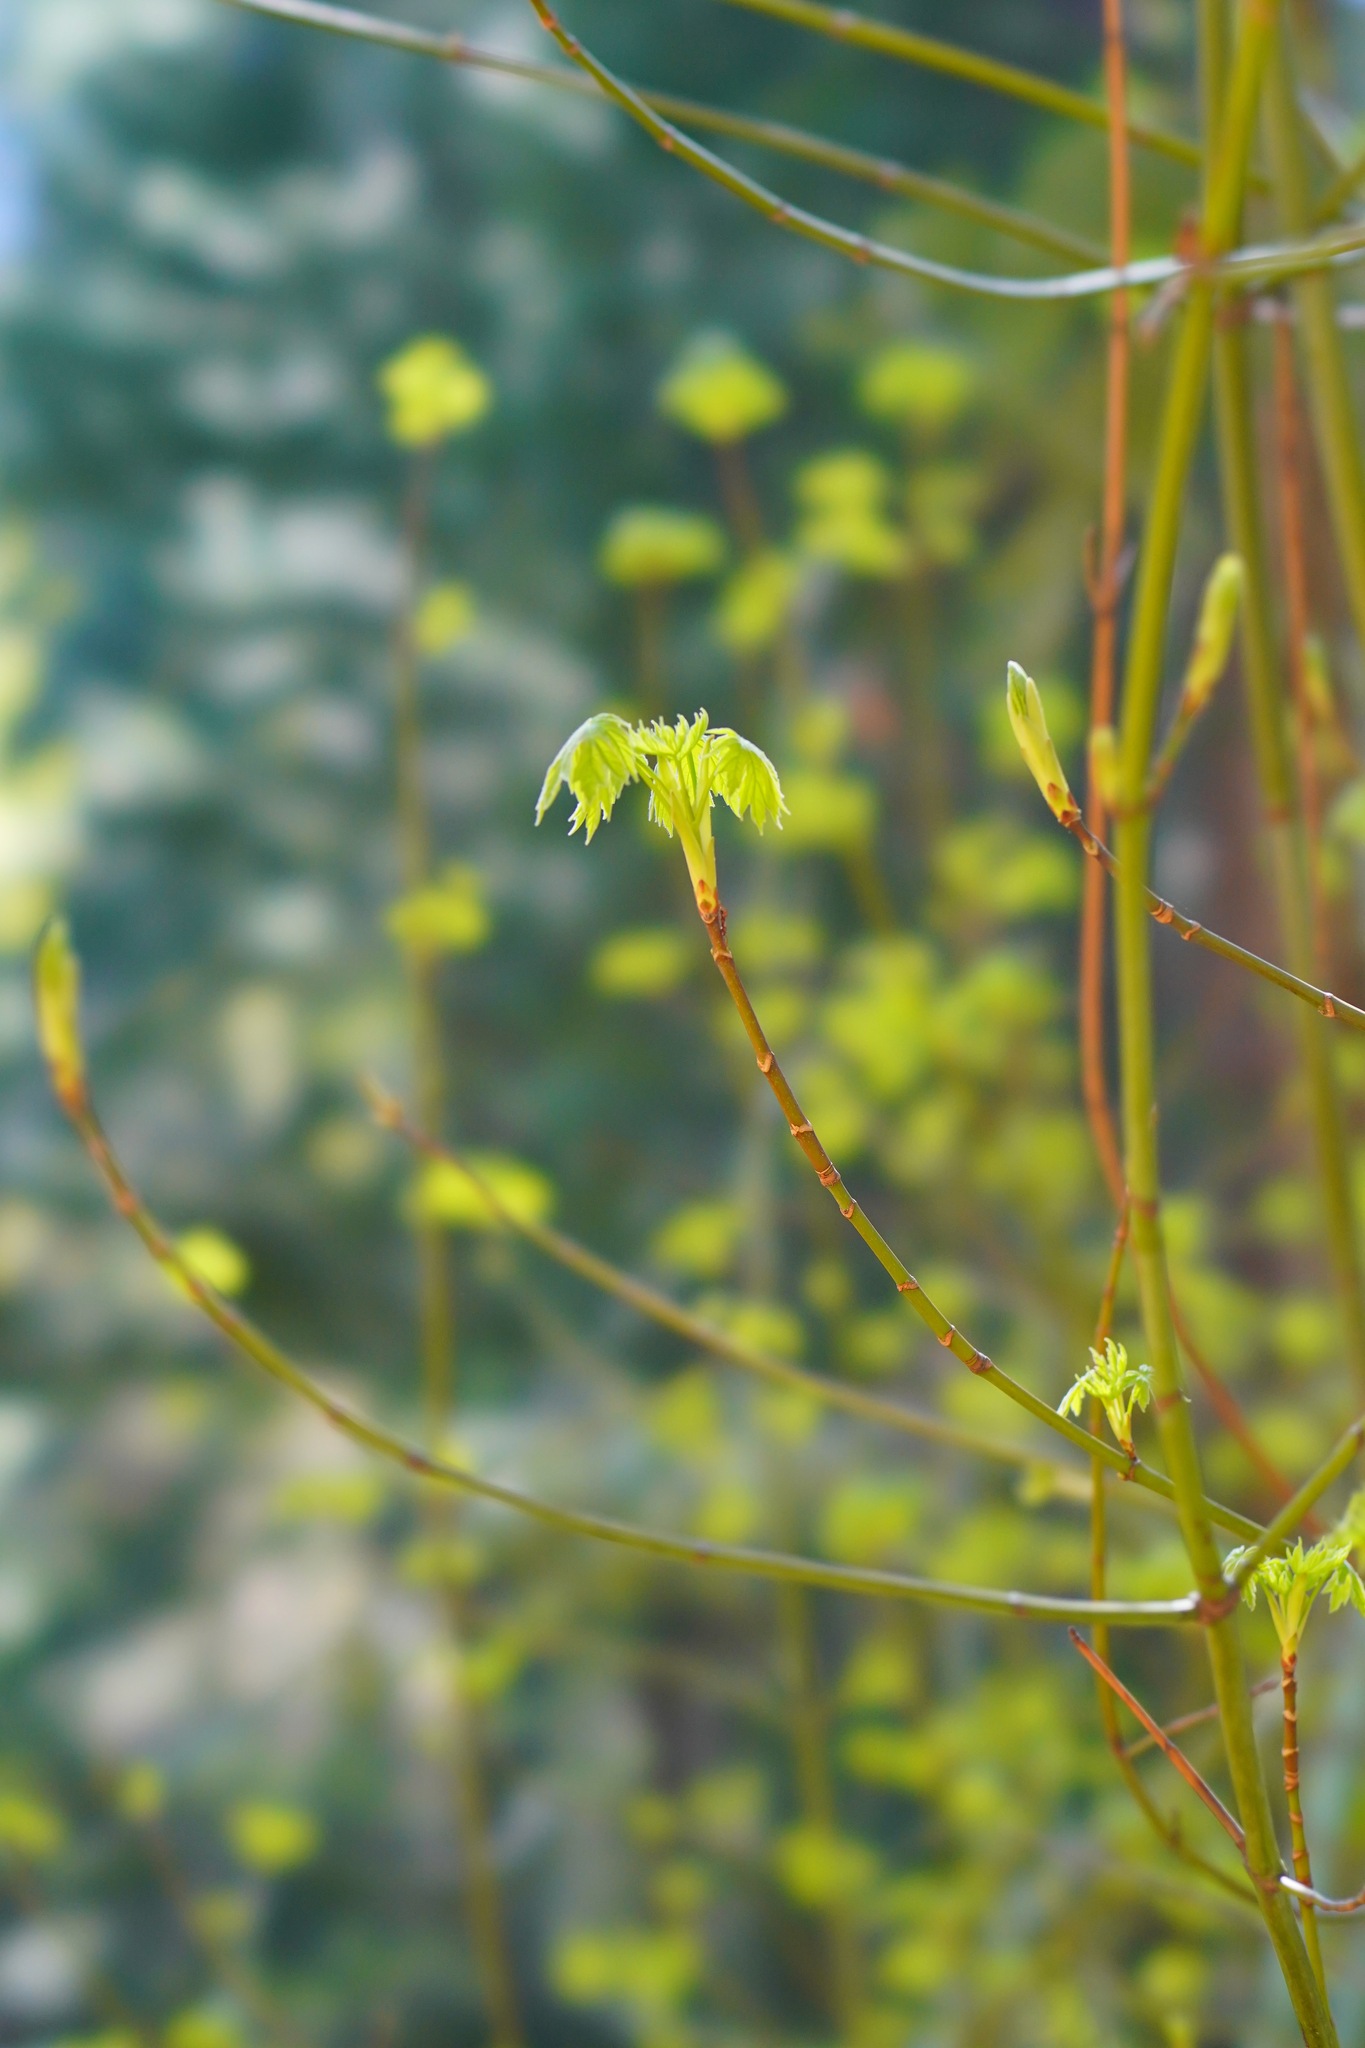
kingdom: Plantae
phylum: Tracheophyta
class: Magnoliopsida
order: Sapindales
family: Sapindaceae
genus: Acer
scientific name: Acer macrophyllum
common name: Oregon maple
